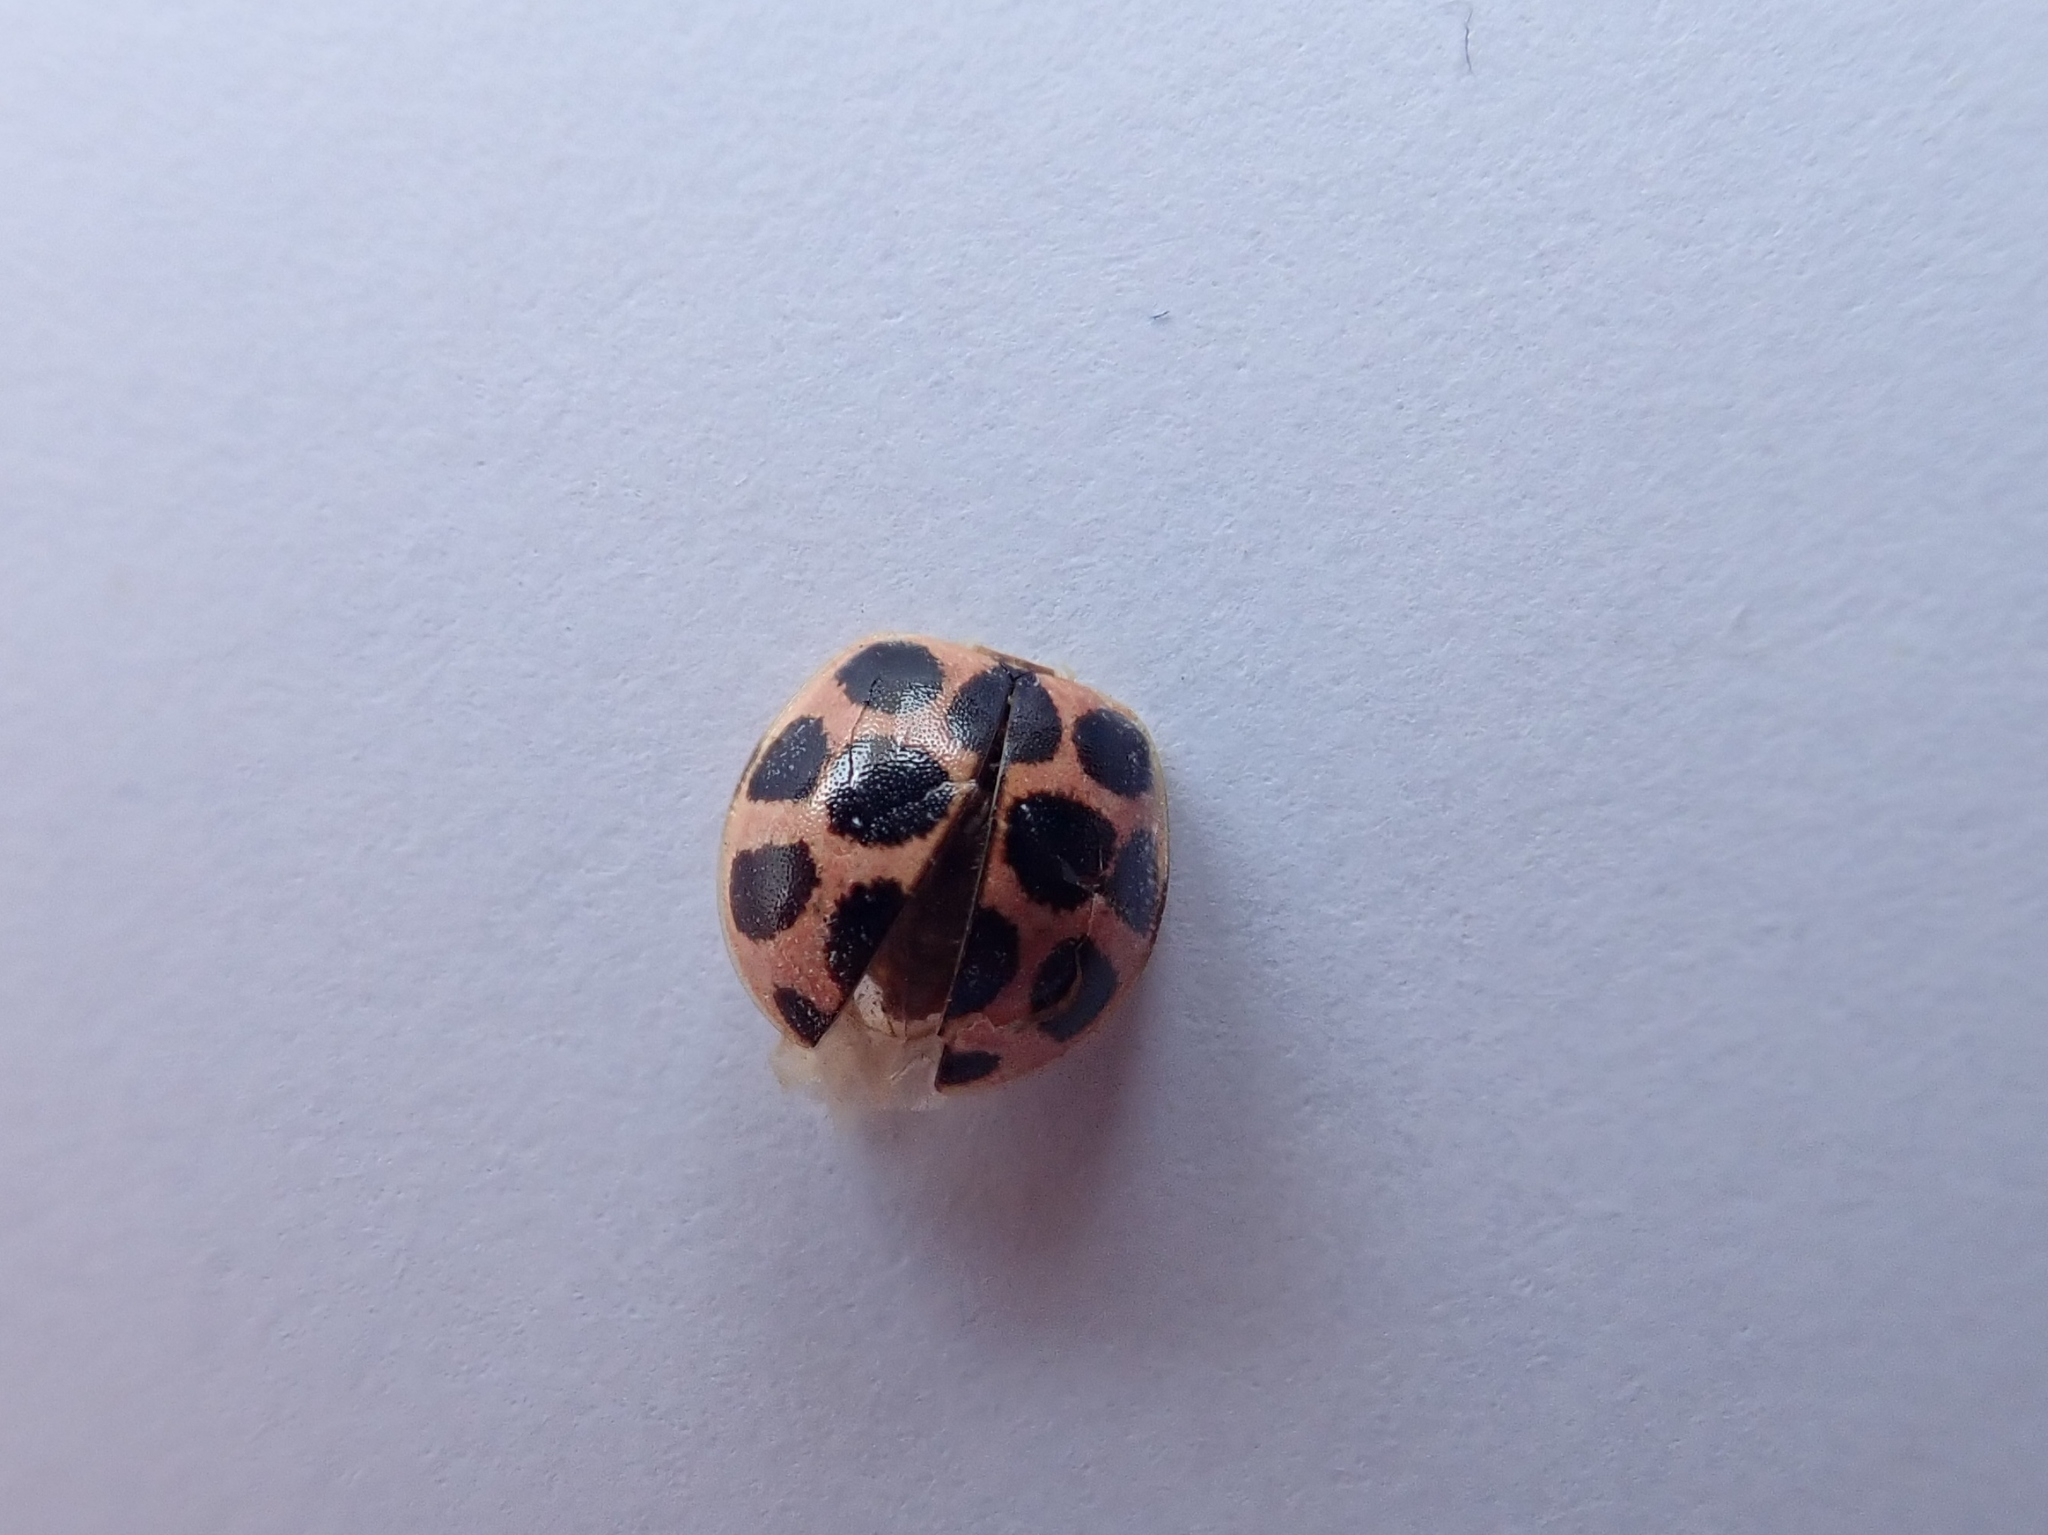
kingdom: Animalia
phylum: Arthropoda
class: Insecta
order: Coleoptera
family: Coccinellidae
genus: Calvia
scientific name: Calvia quatuordecimguttata
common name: Cream-spot ladybird
